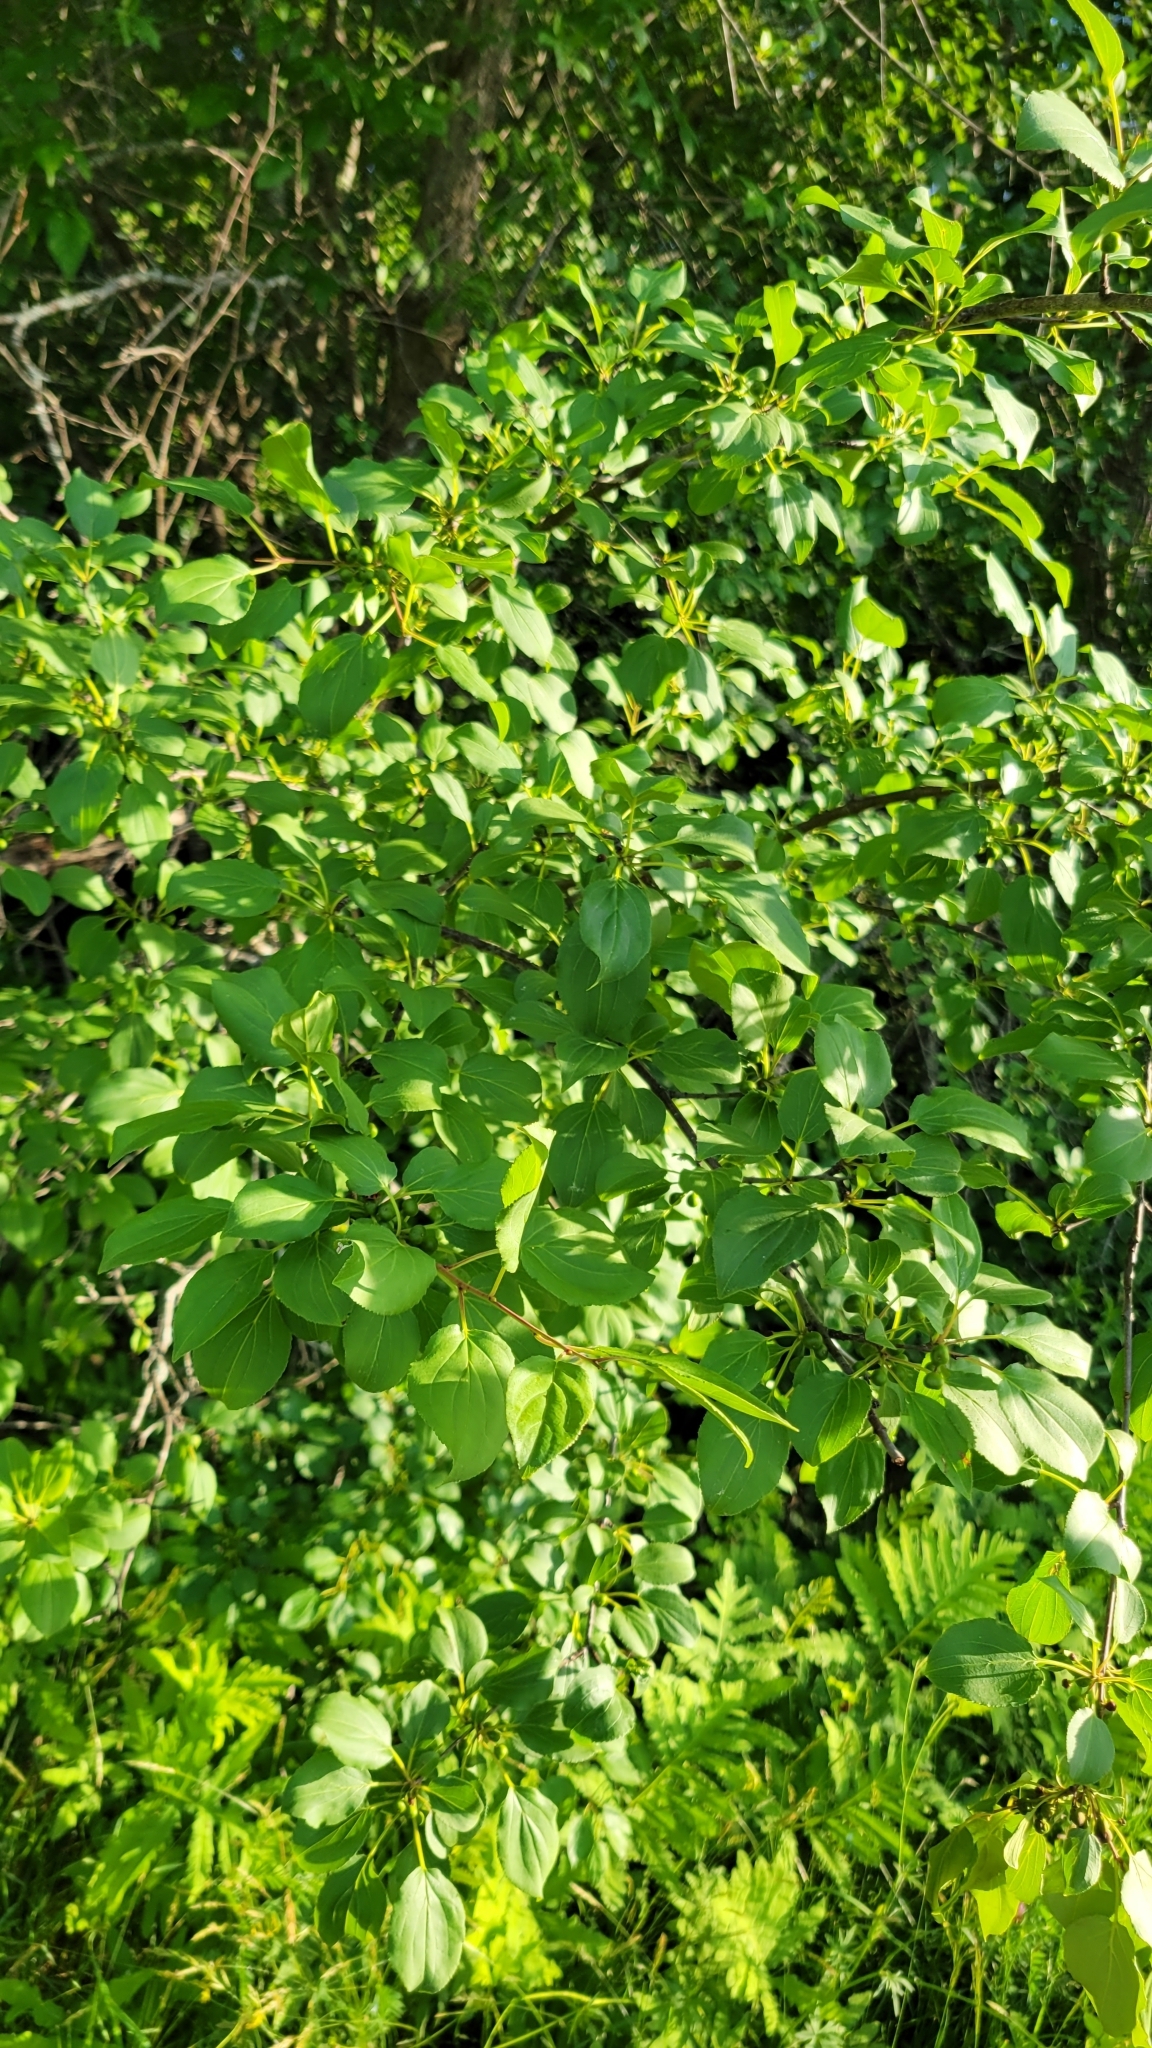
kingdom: Plantae
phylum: Tracheophyta
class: Magnoliopsida
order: Rosales
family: Rhamnaceae
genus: Rhamnus
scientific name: Rhamnus cathartica
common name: Common buckthorn
